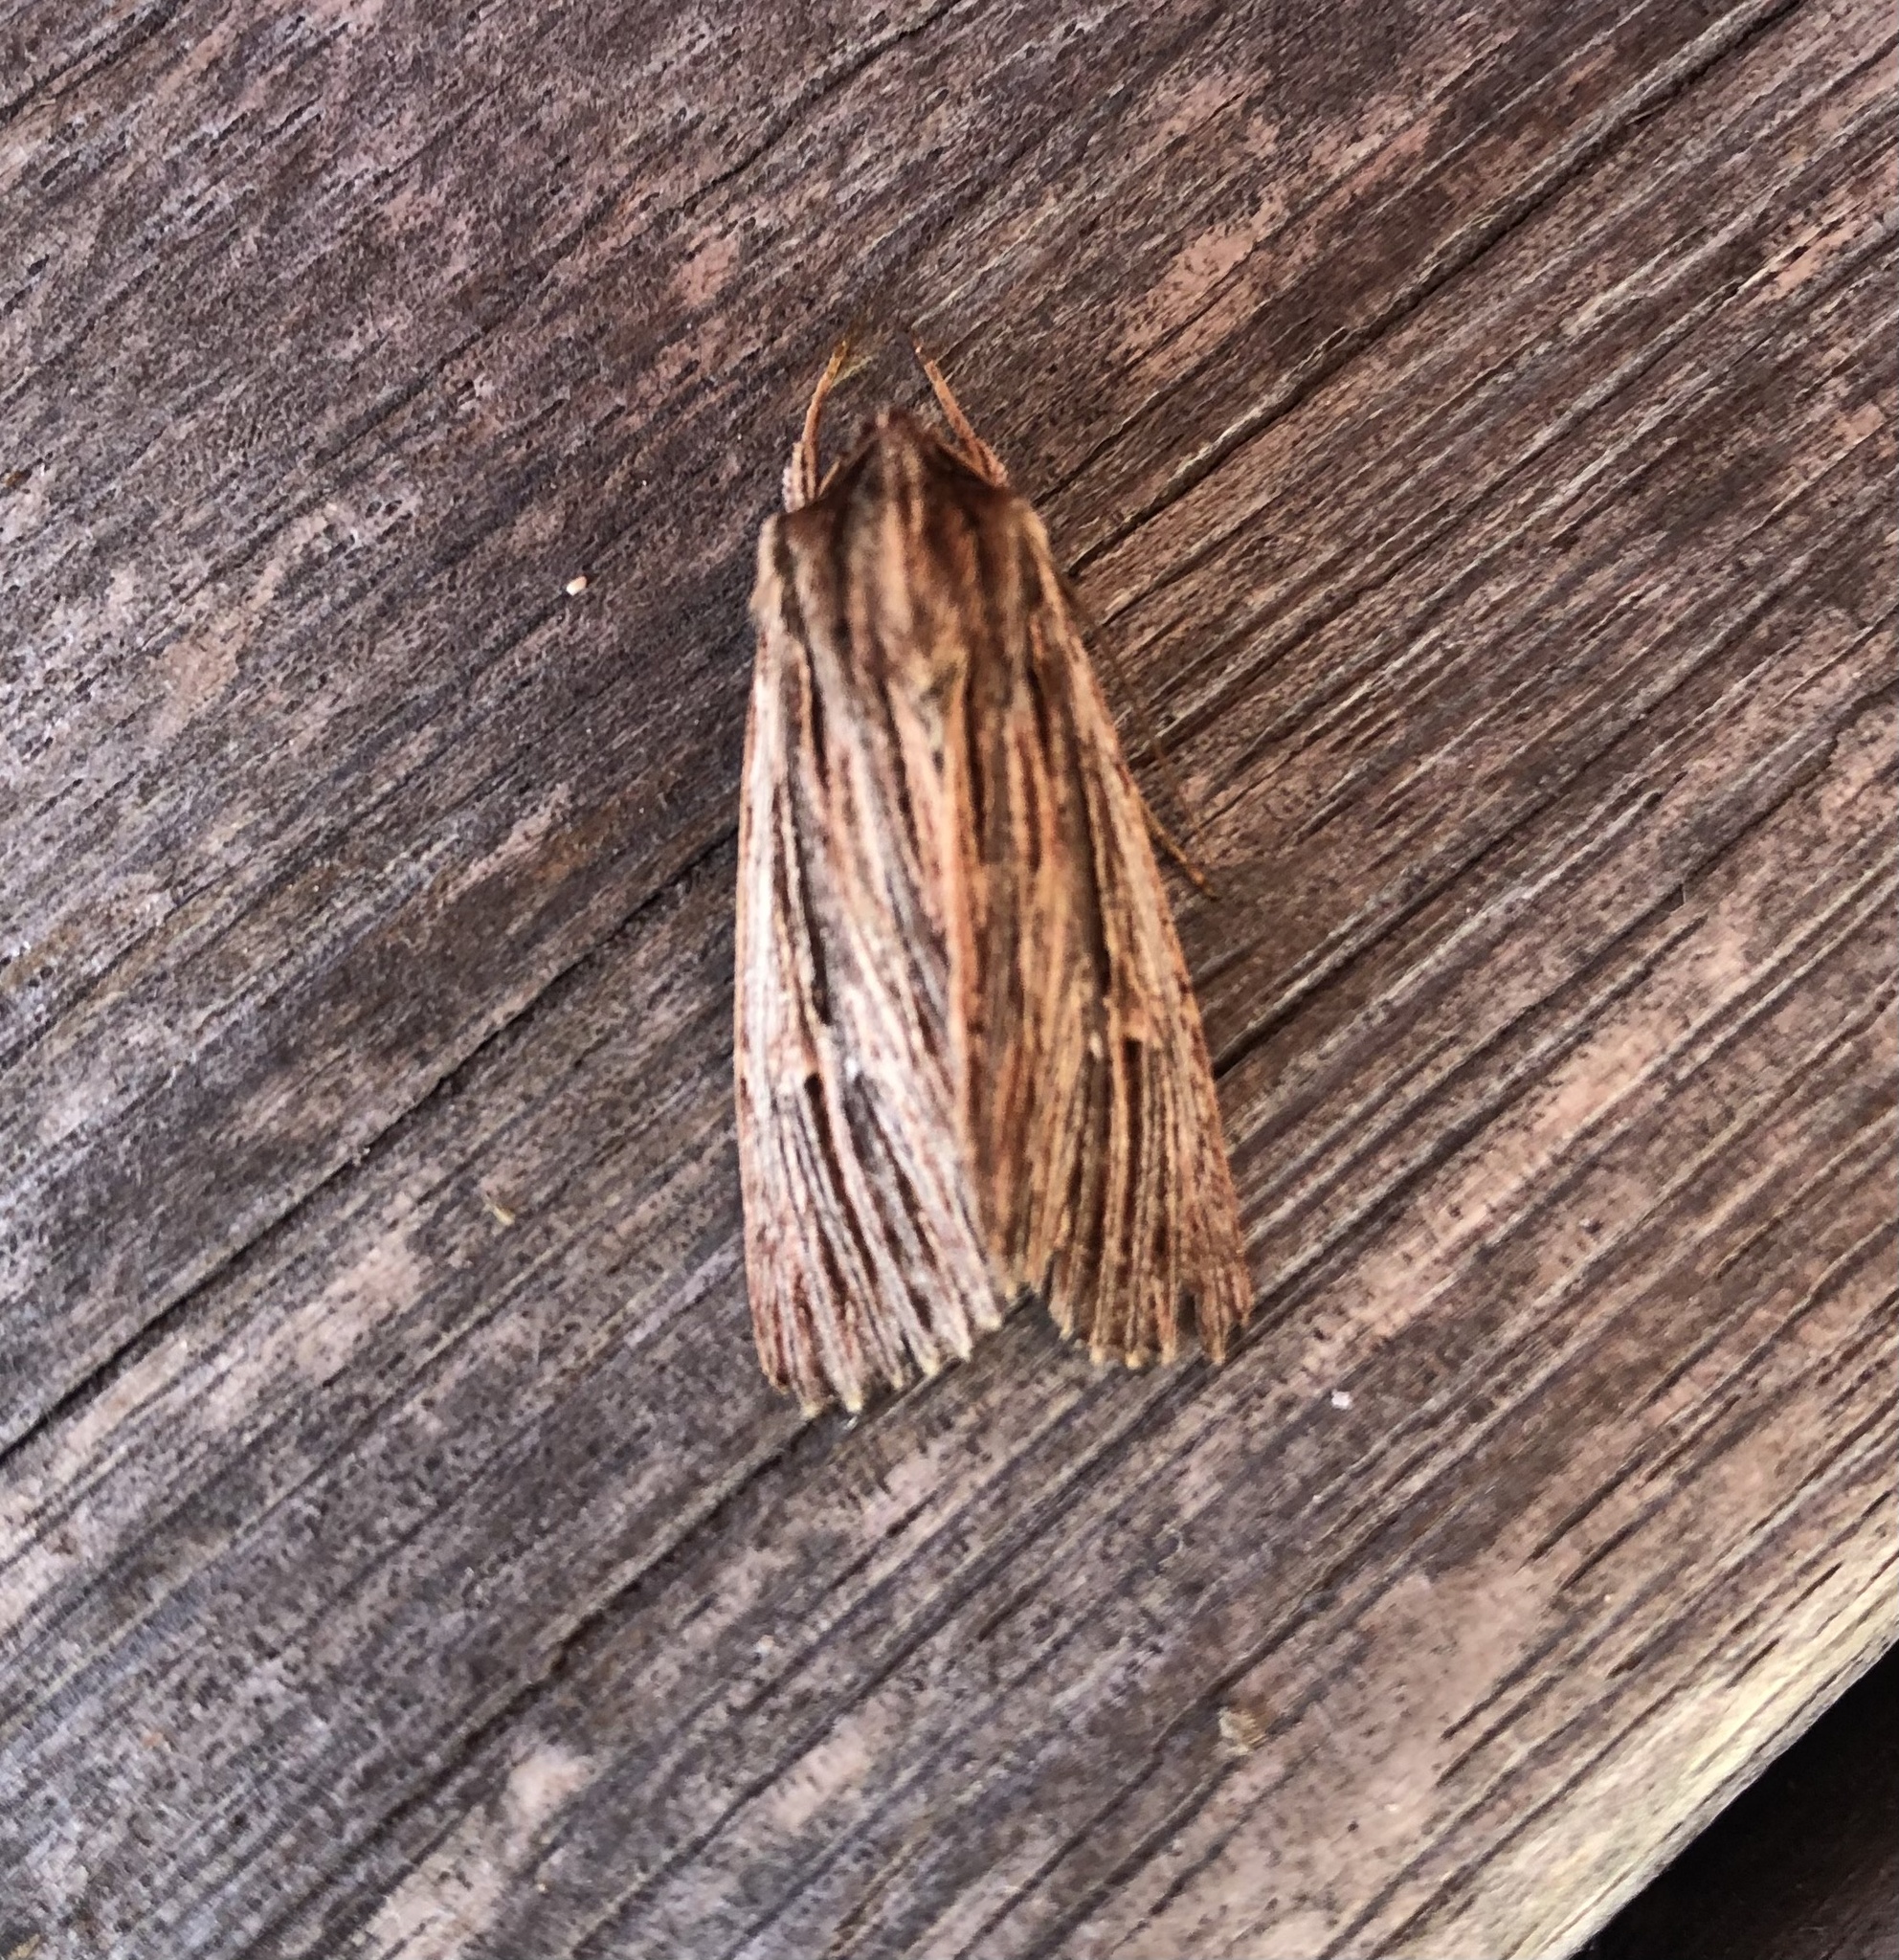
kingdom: Animalia
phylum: Arthropoda
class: Insecta
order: Lepidoptera
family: Noctuidae
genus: Ichneutica
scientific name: Ichneutica
